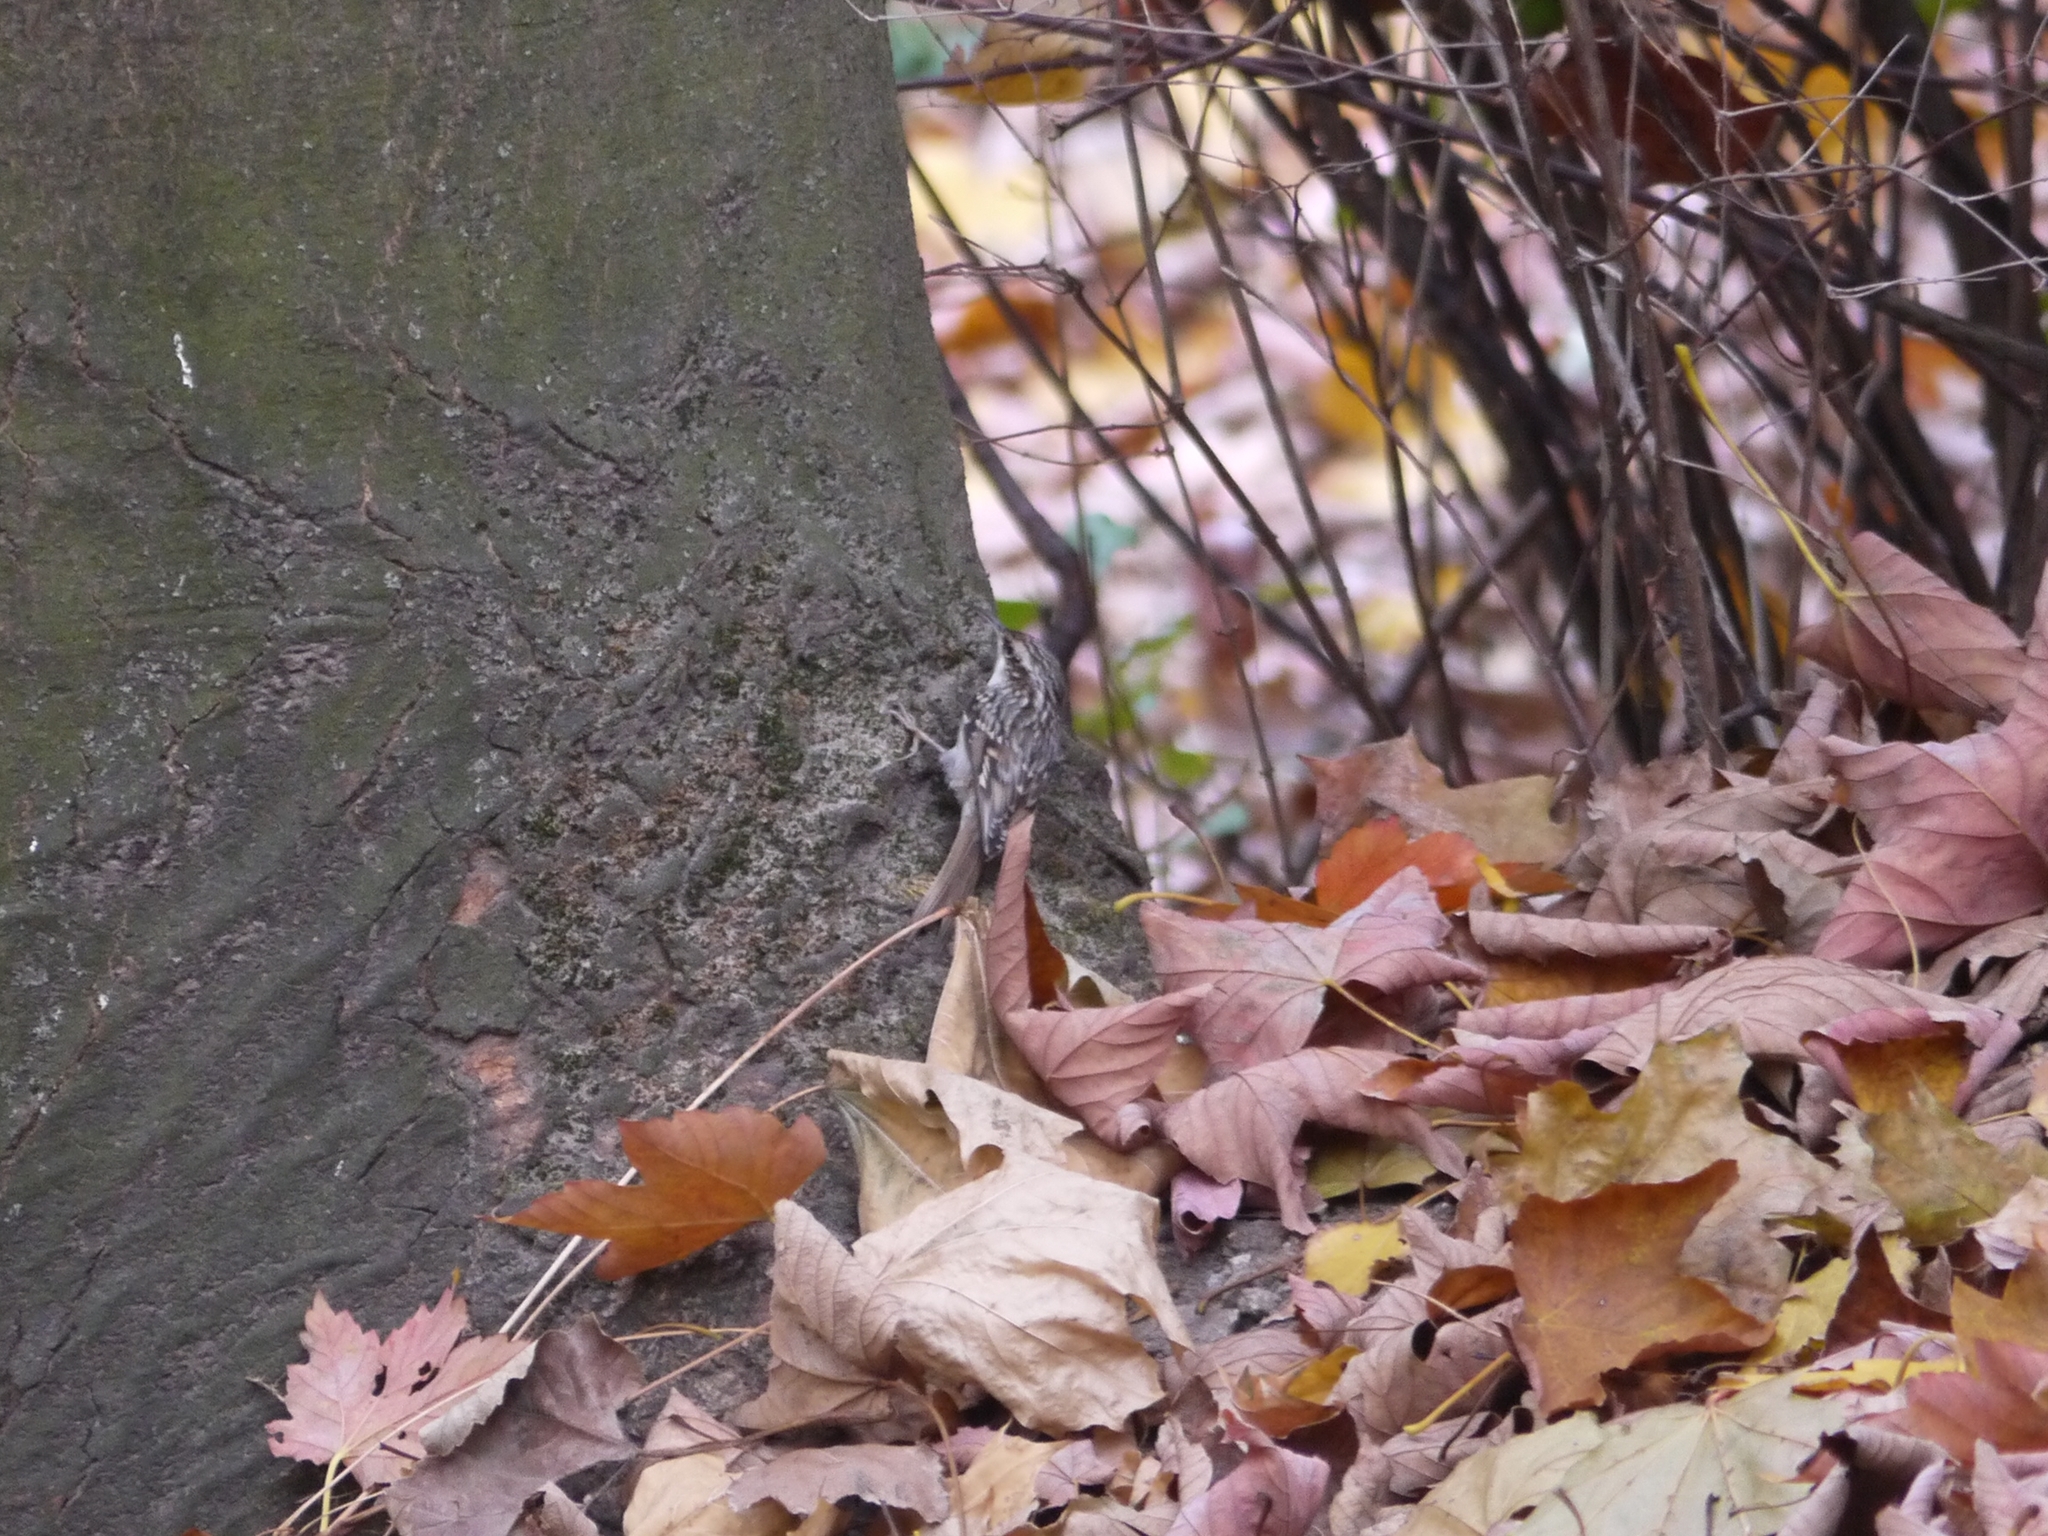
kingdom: Animalia
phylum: Chordata
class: Aves
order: Passeriformes
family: Certhiidae
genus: Certhia
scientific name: Certhia brachydactyla
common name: Short-toed treecreeper
